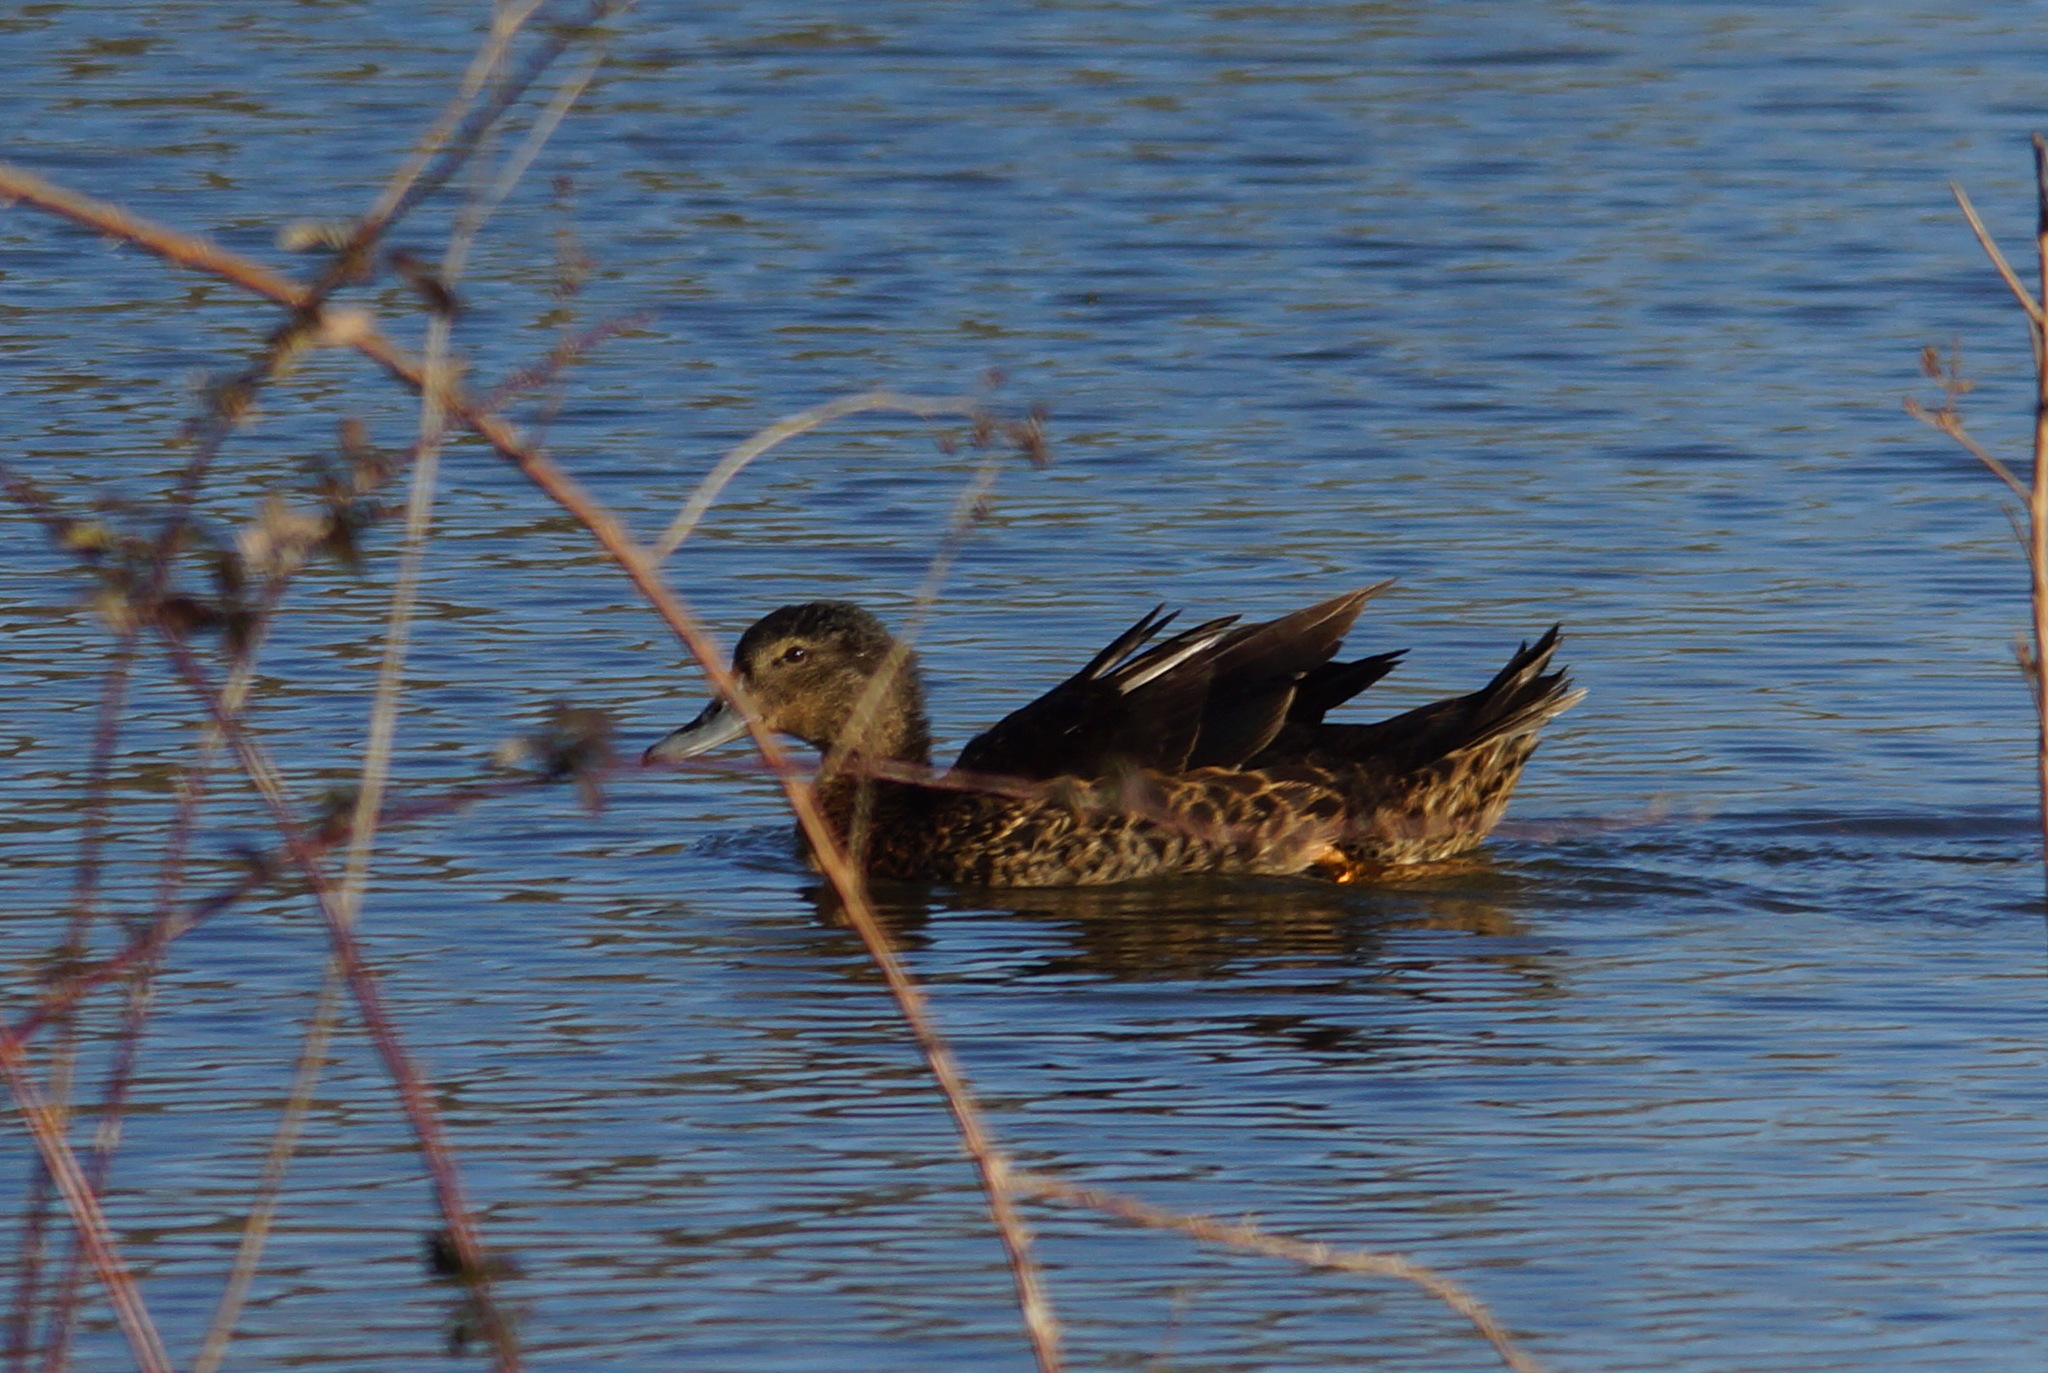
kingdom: Animalia
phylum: Chordata
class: Aves
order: Anseriformes
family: Anatidae
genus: Anas
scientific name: Anas platyrhynchos
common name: Mallard
